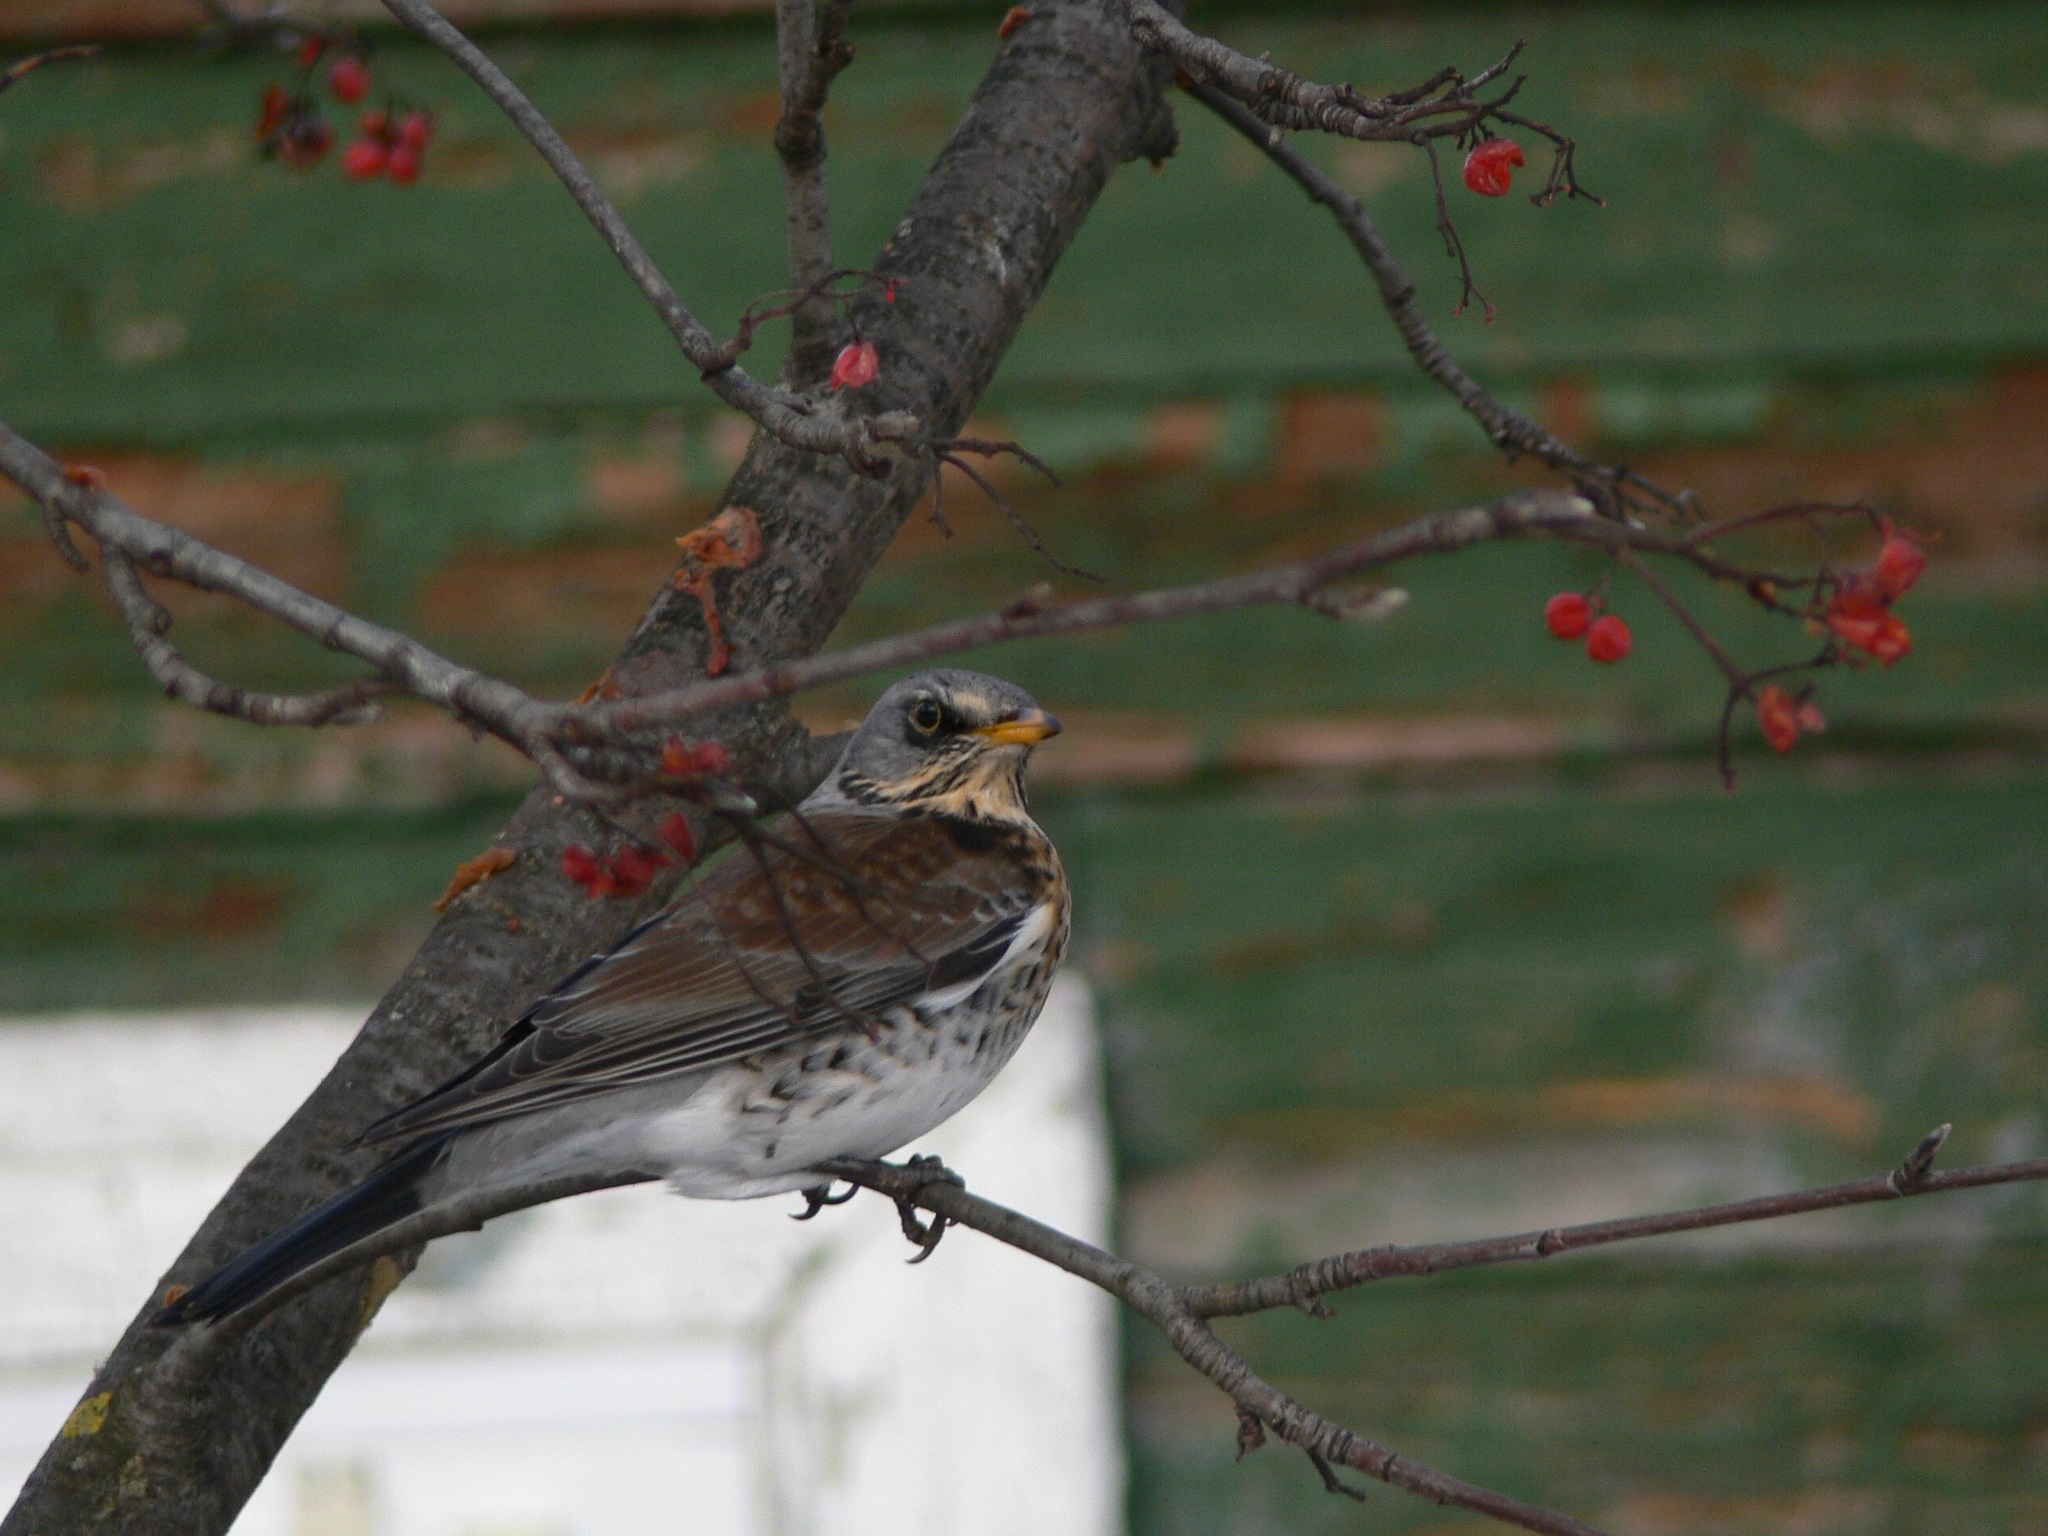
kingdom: Animalia
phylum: Chordata
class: Aves
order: Passeriformes
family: Turdidae
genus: Turdus
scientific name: Turdus pilaris
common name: Fieldfare
